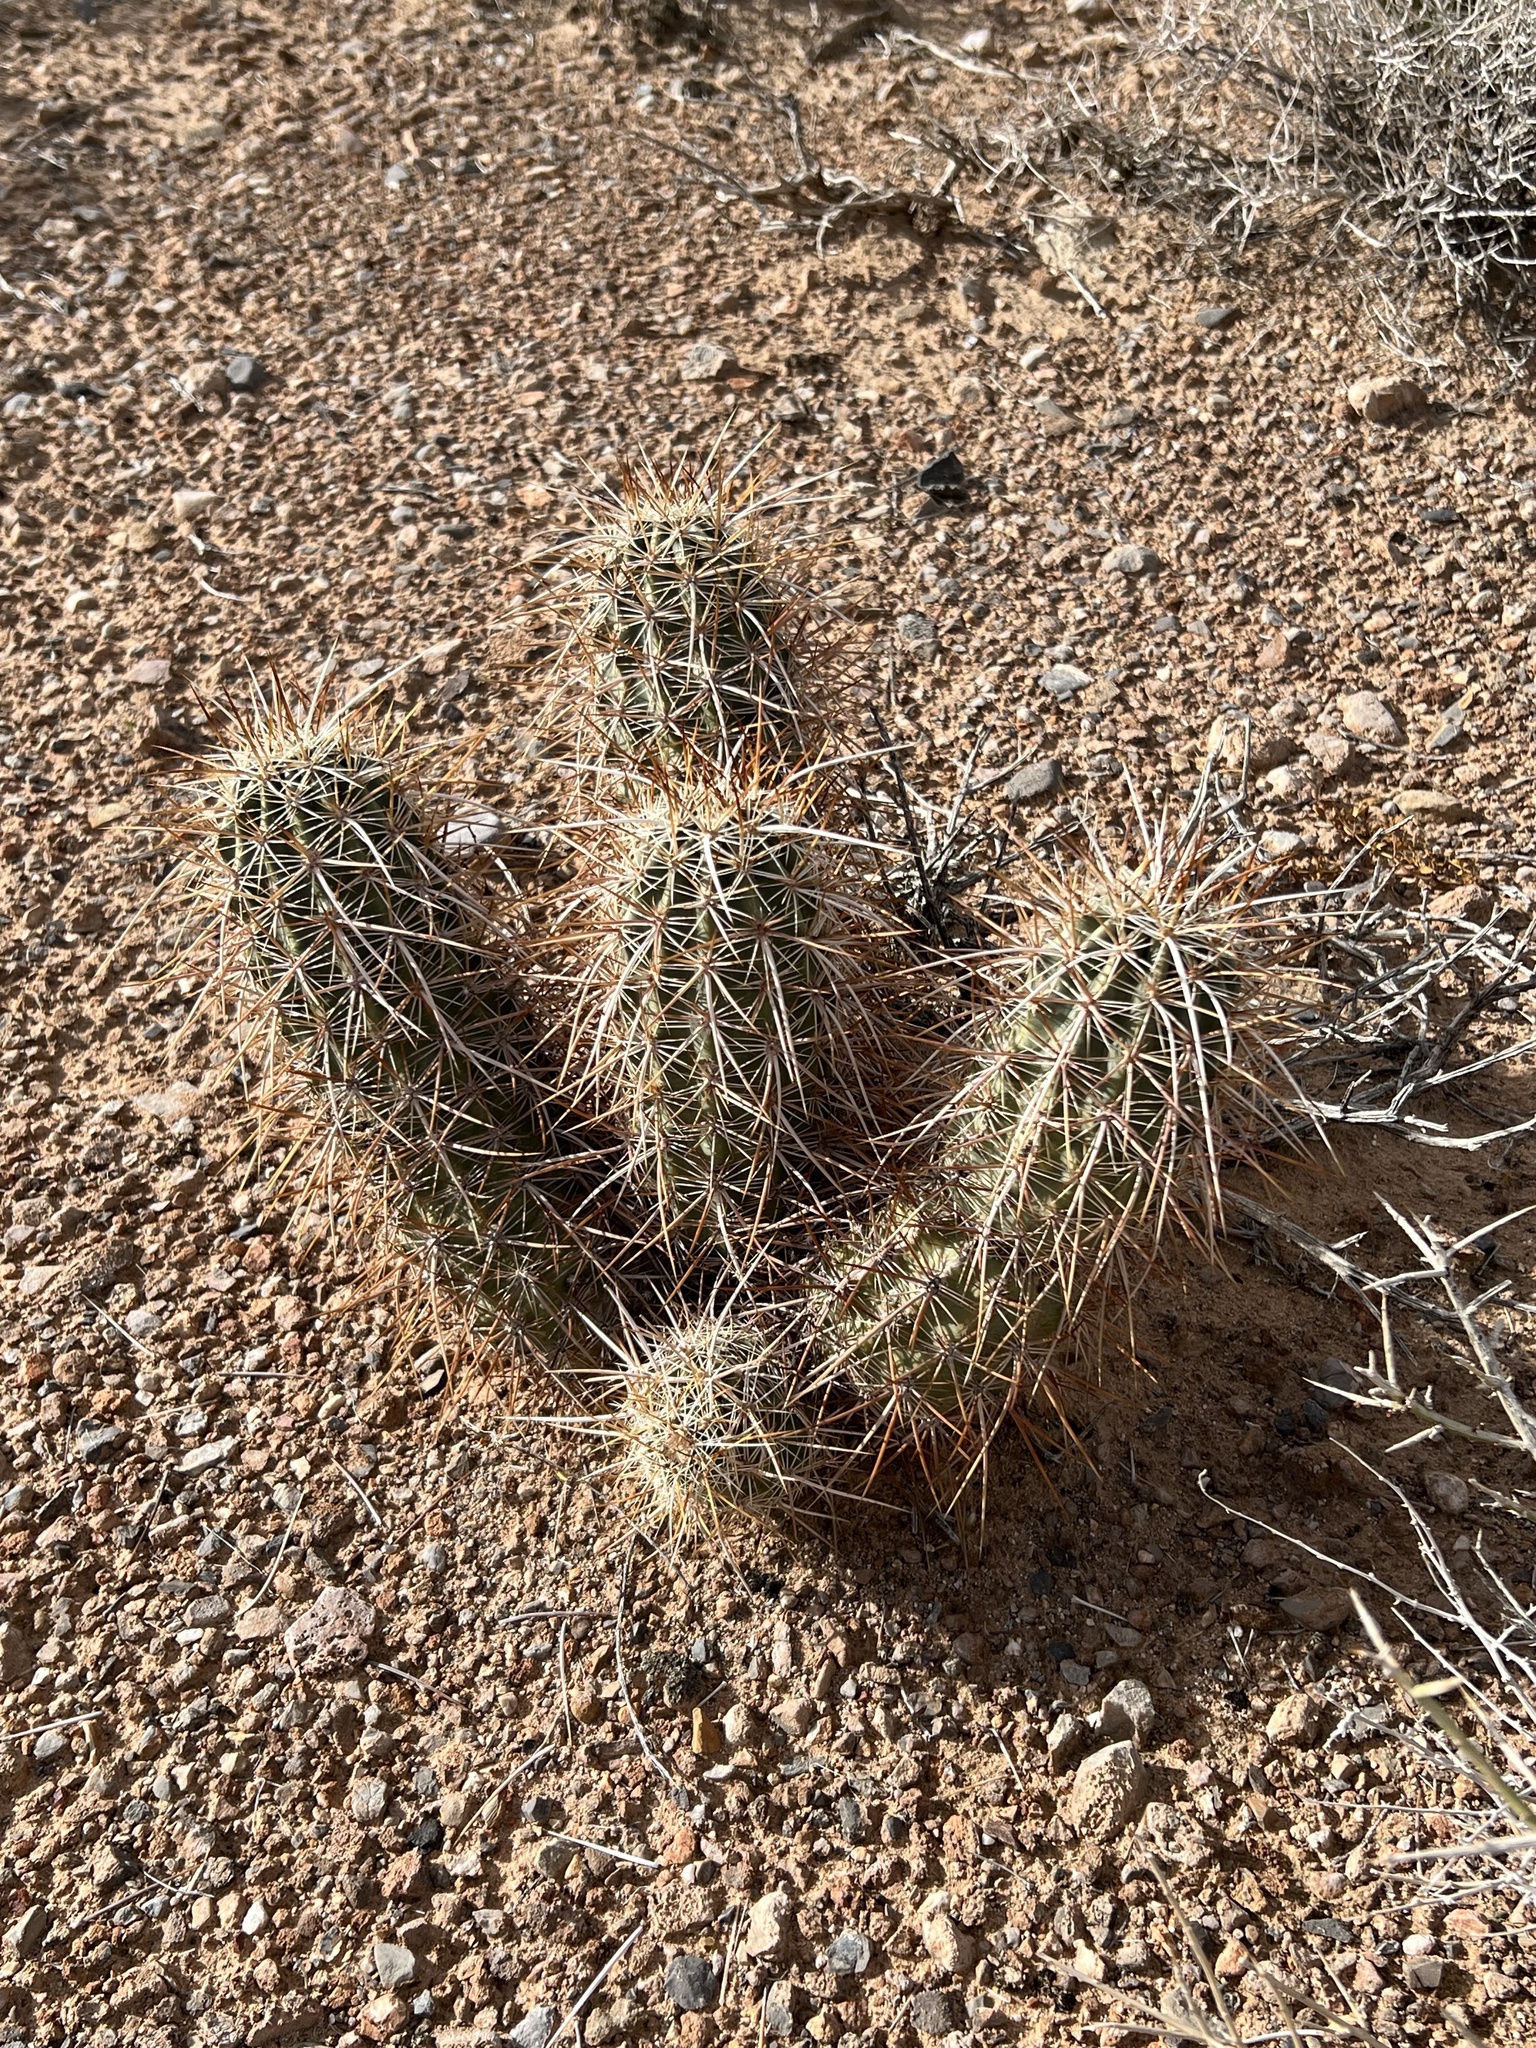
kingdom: Plantae
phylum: Tracheophyta
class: Magnoliopsida
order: Caryophyllales
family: Cactaceae
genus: Echinocereus
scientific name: Echinocereus engelmannii
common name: Engelmann's hedgehog cactus
